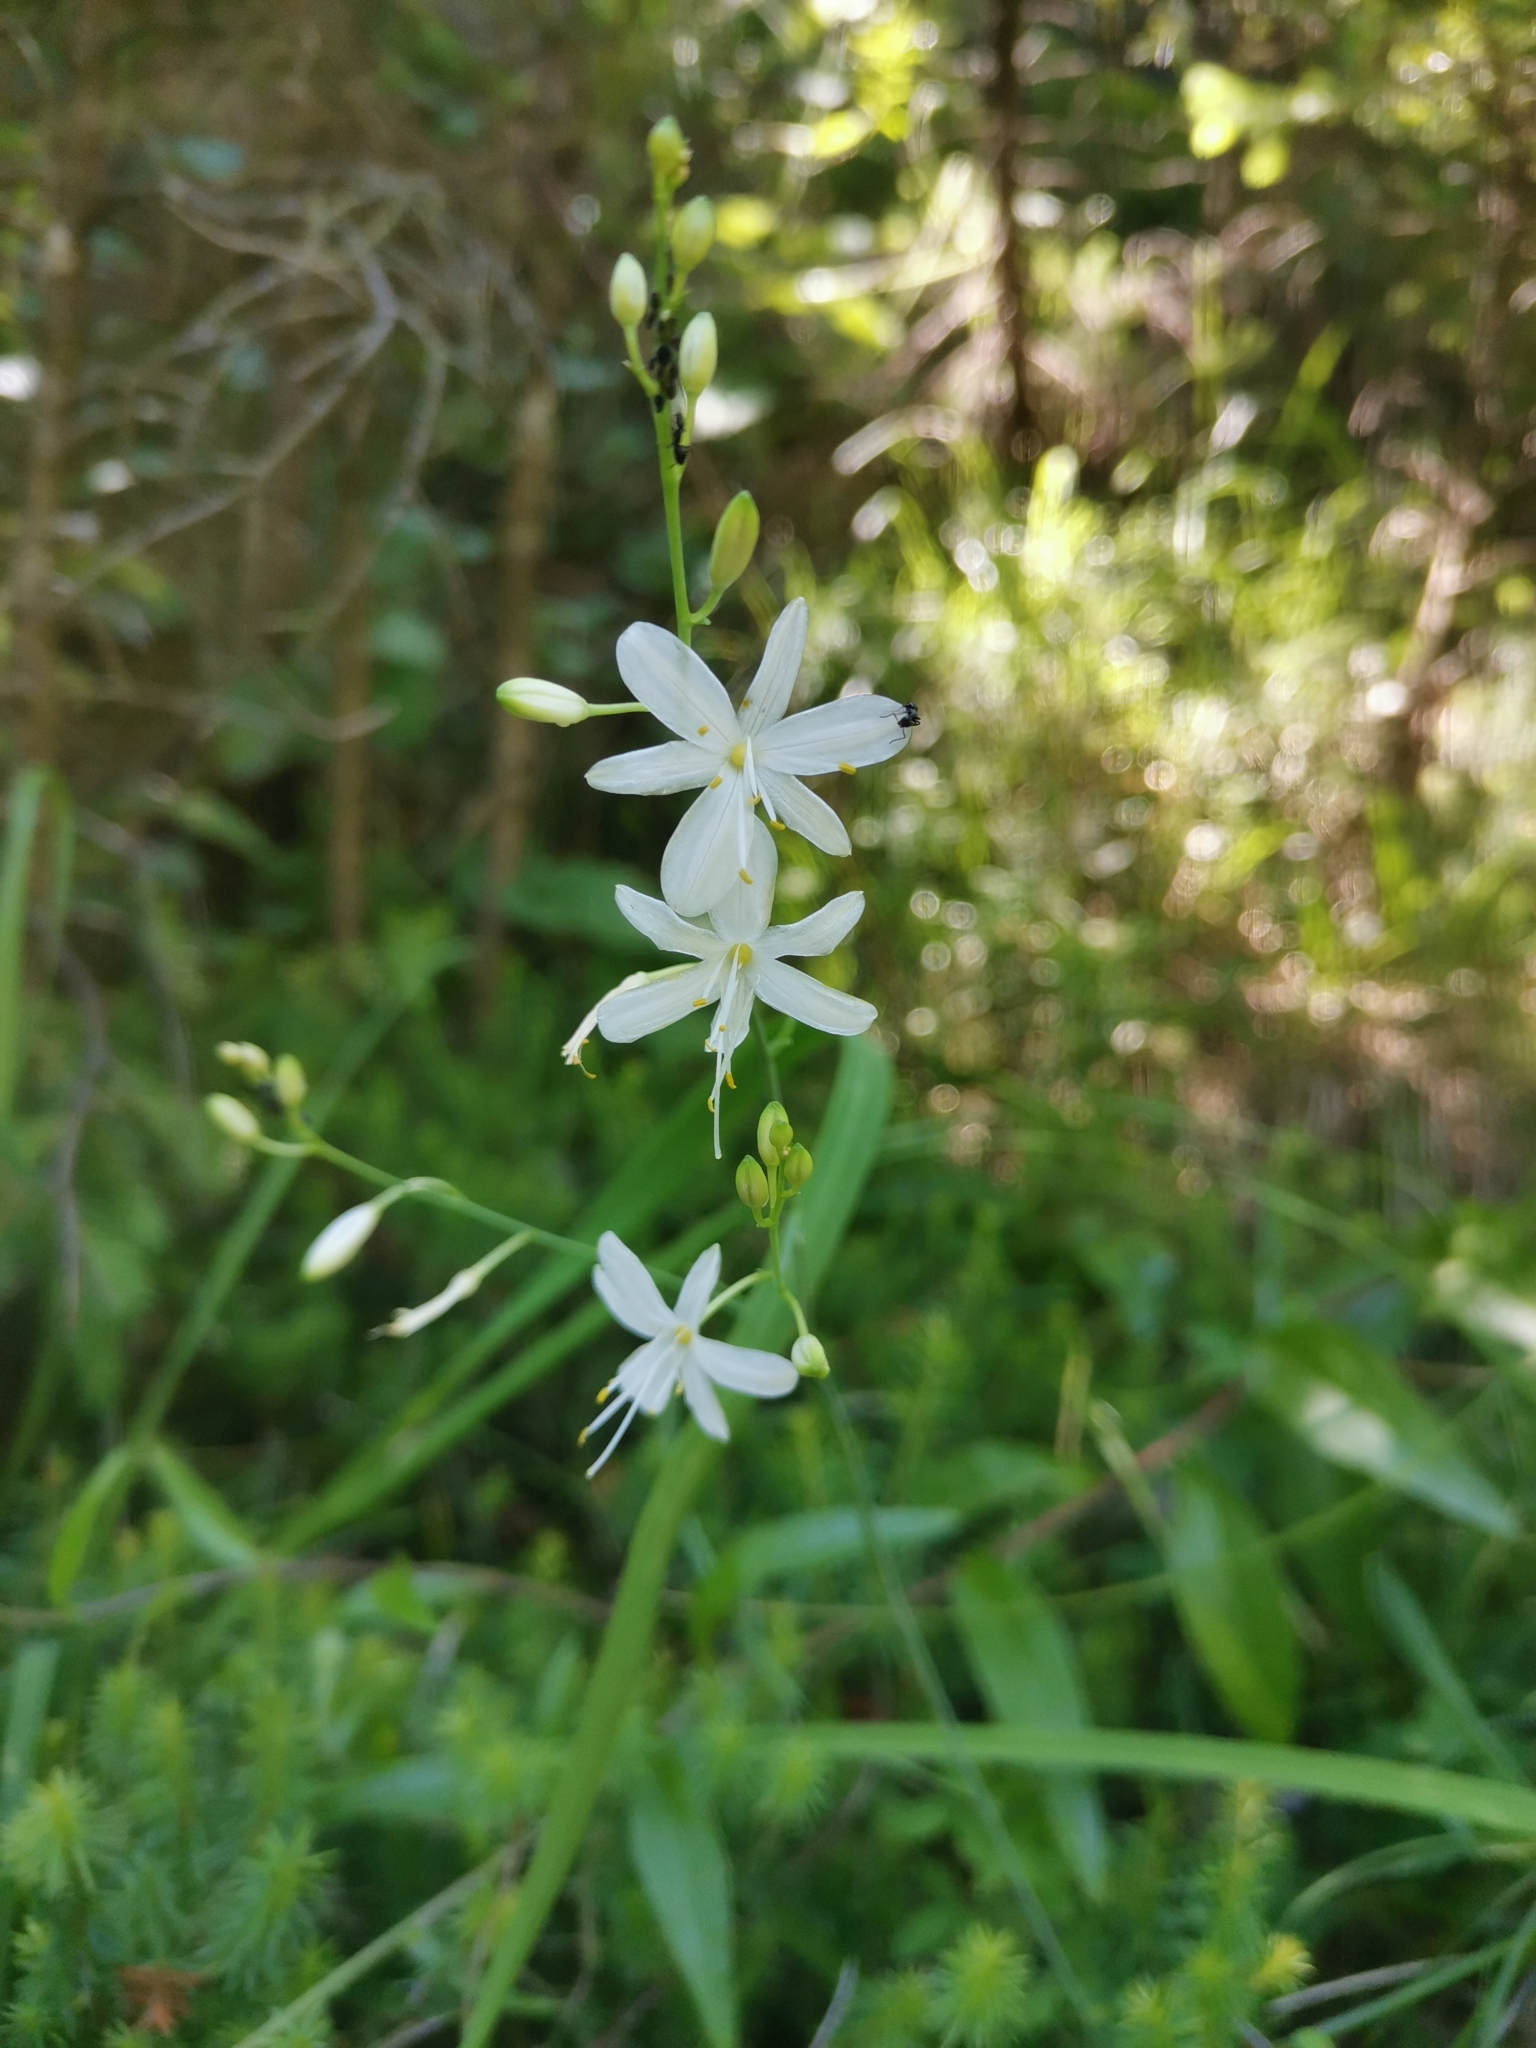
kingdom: Plantae
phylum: Tracheophyta
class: Liliopsida
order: Asparagales
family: Asparagaceae
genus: Anthericum
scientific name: Anthericum ramosum
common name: Branched st. bernard's-lily
